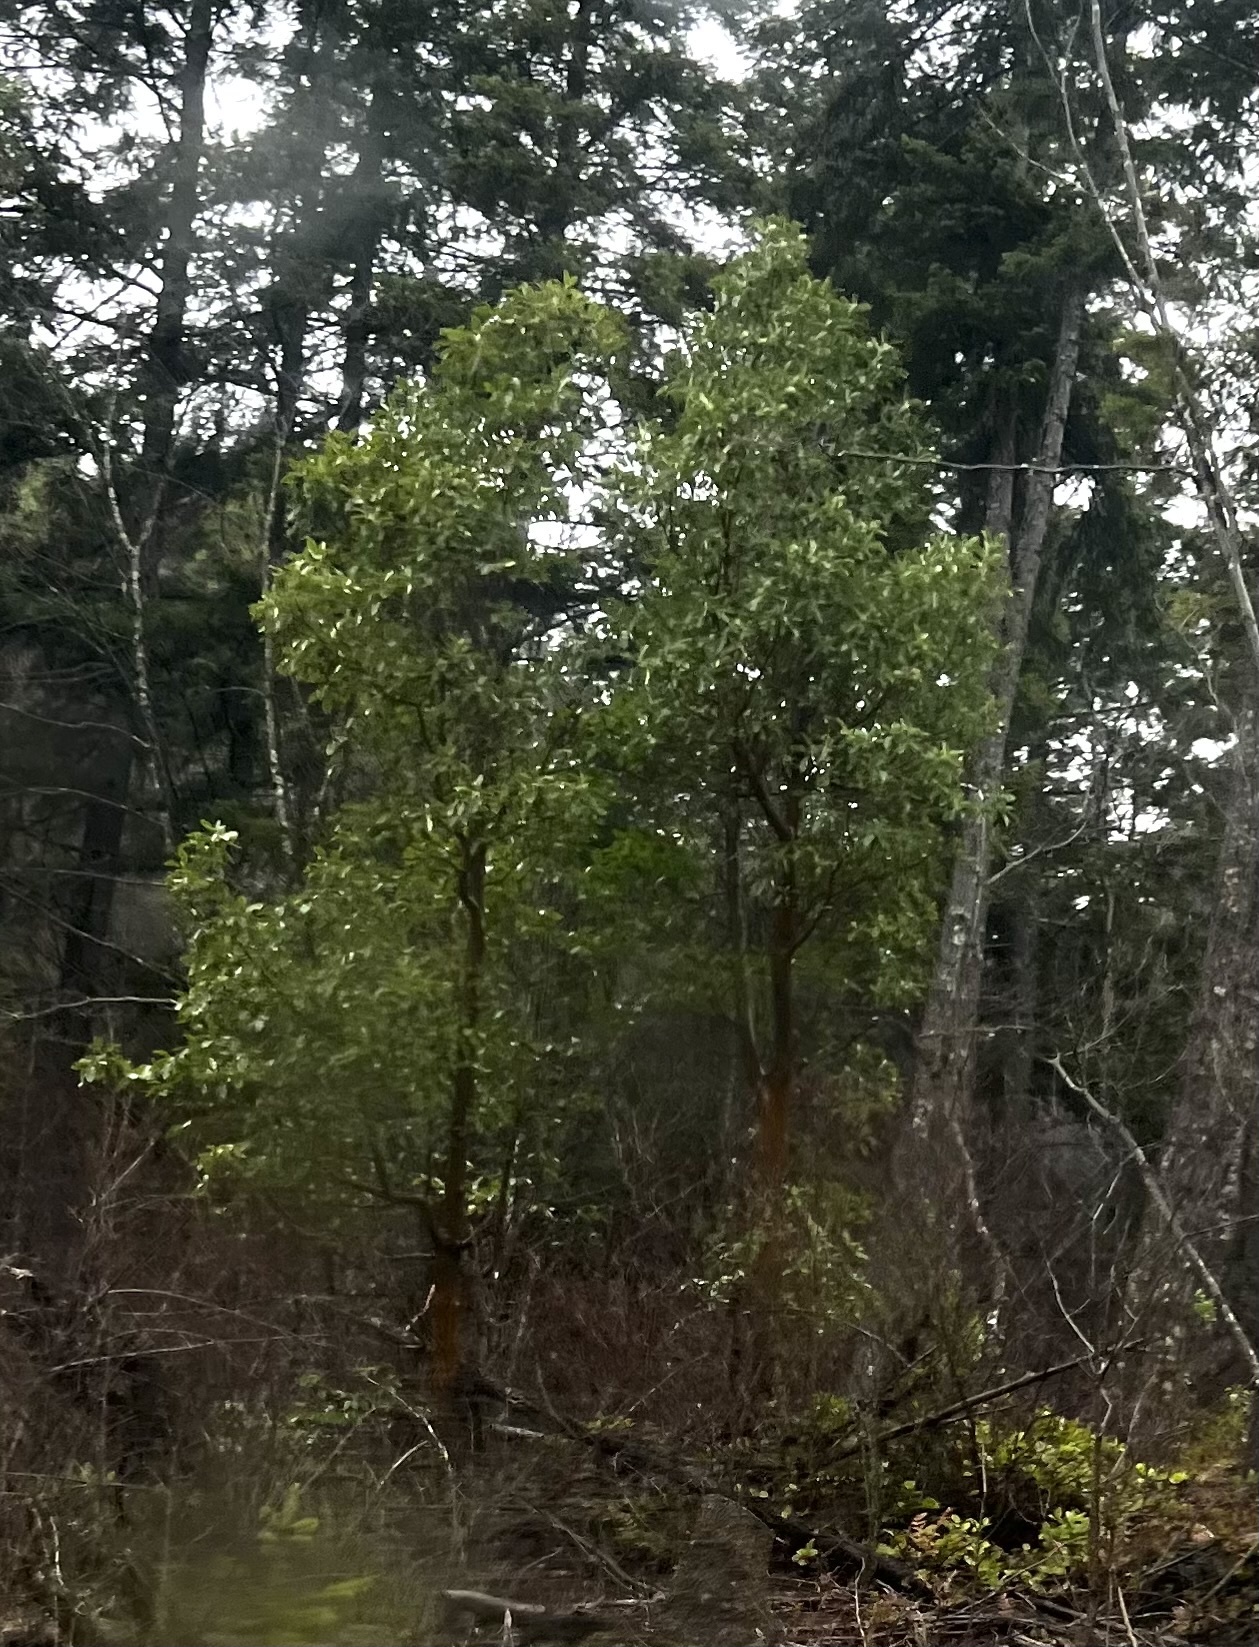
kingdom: Plantae
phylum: Tracheophyta
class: Magnoliopsida
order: Ericales
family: Ericaceae
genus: Arbutus
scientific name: Arbutus menziesii
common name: Pacific madrone
